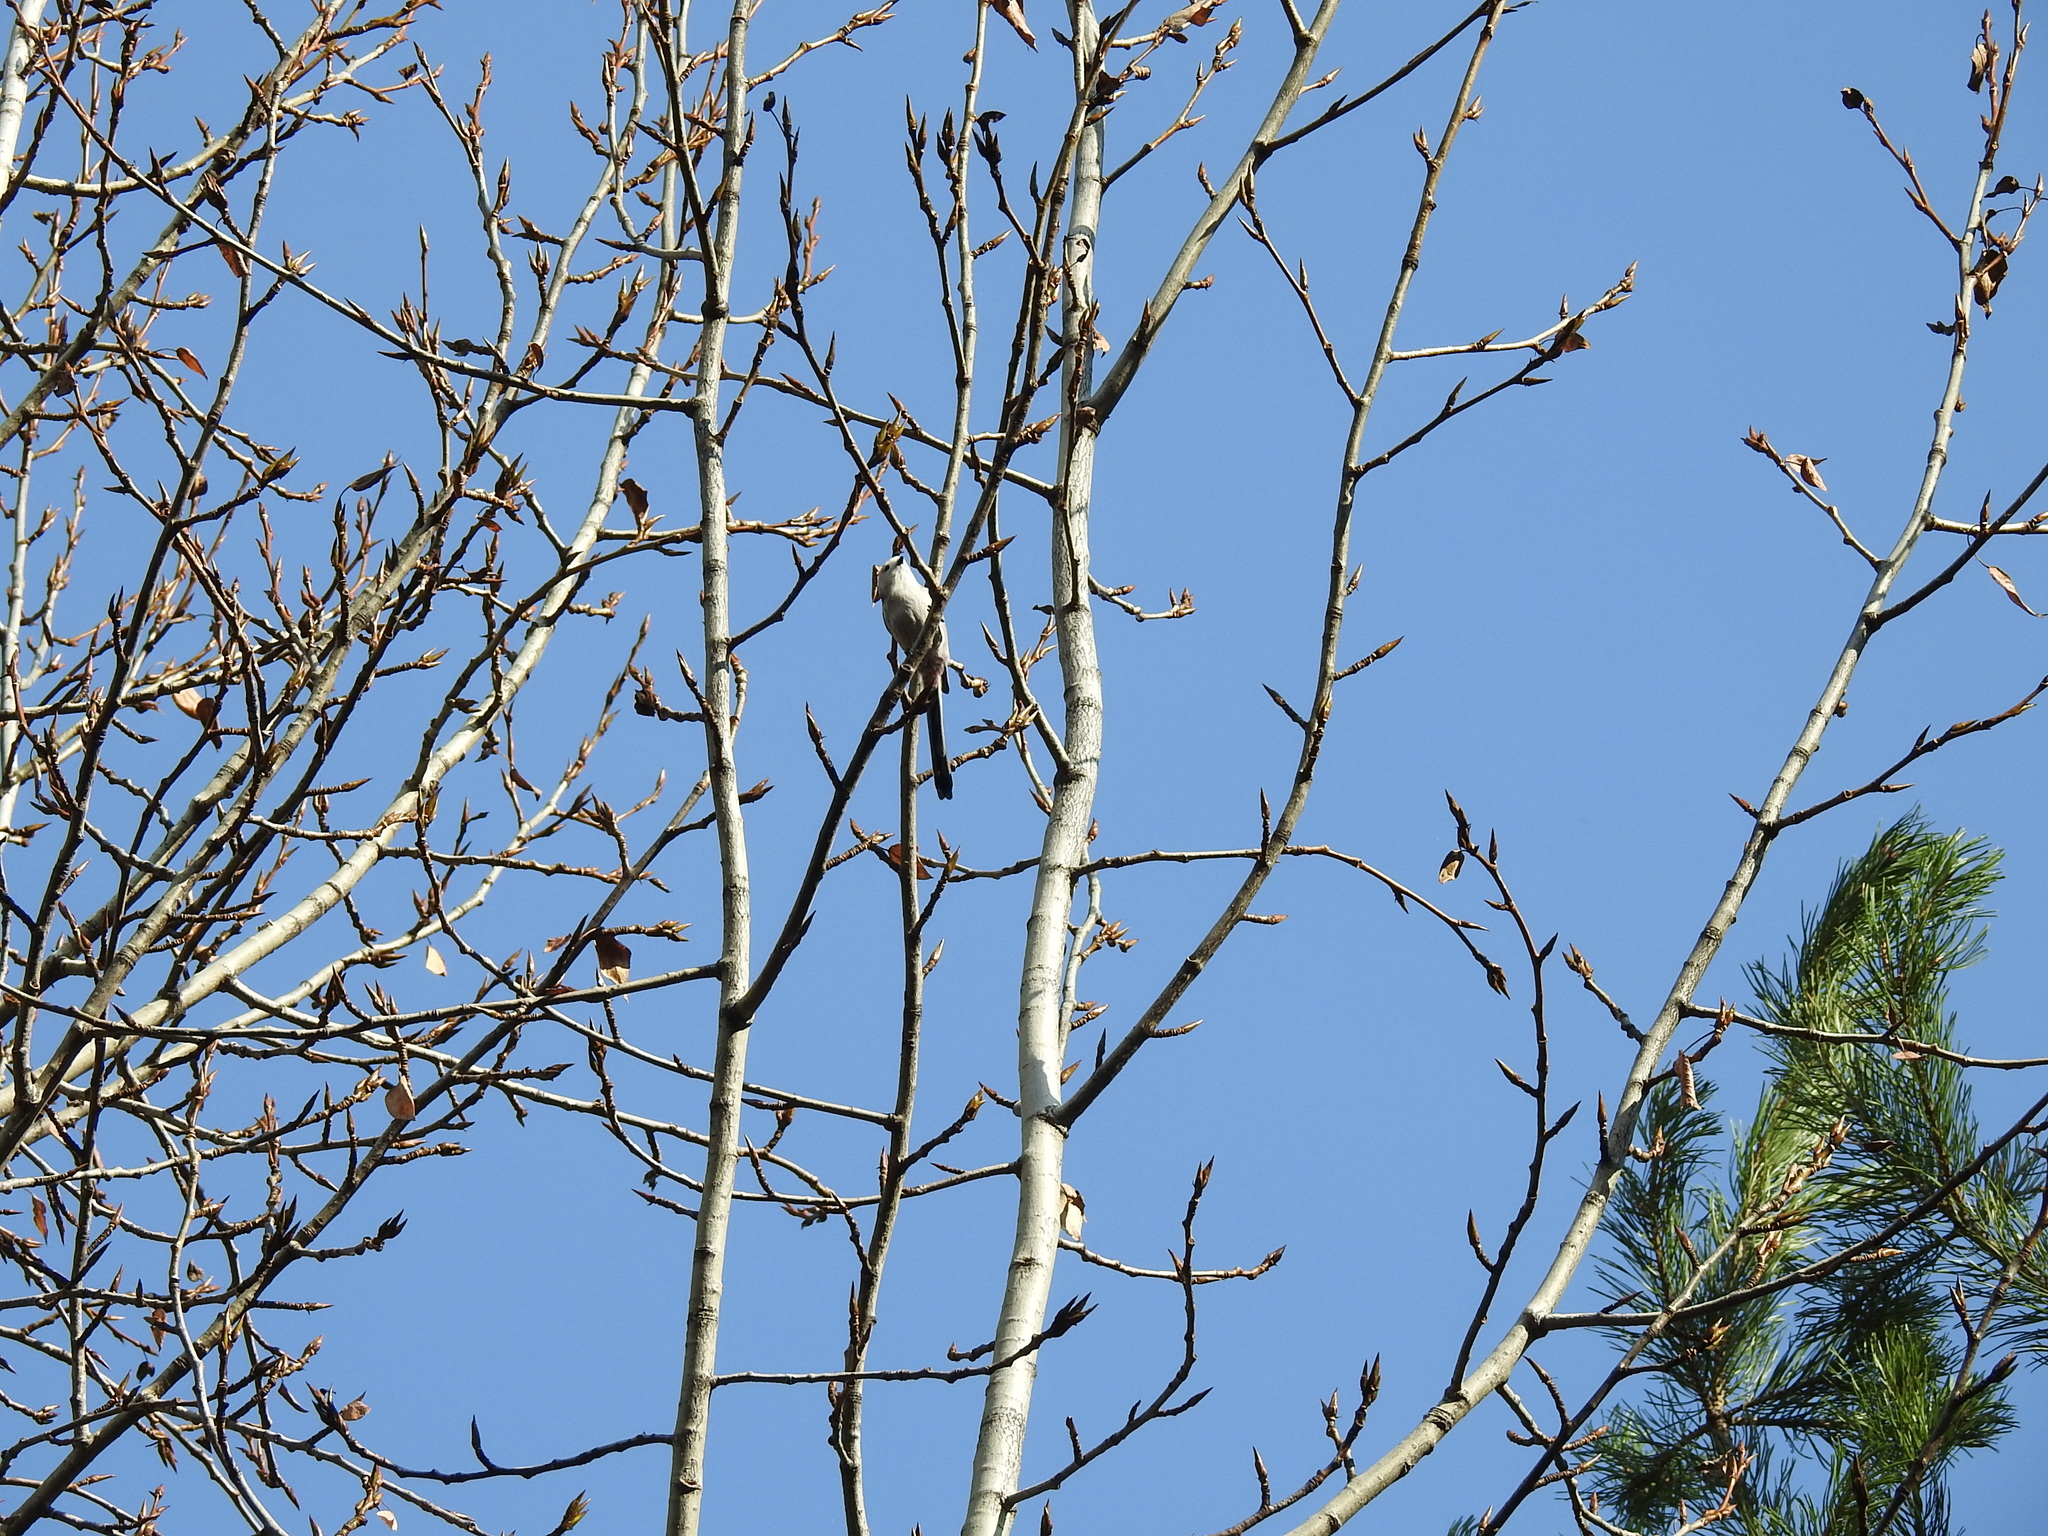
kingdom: Animalia
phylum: Chordata
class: Aves
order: Passeriformes
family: Aegithalidae
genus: Aegithalos
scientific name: Aegithalos caudatus
